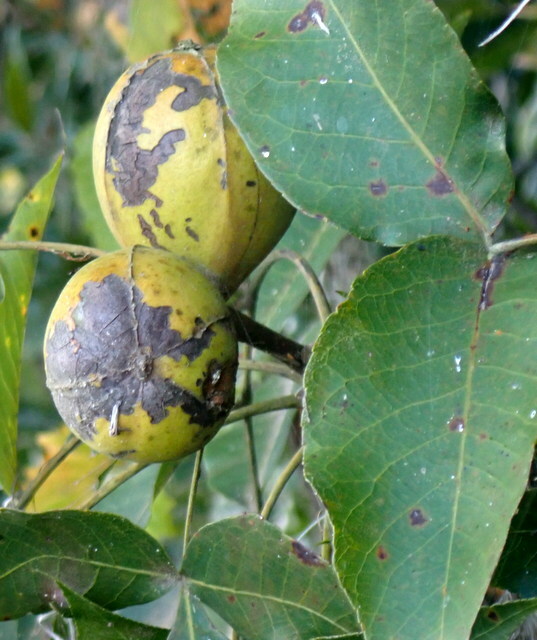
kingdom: Plantae
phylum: Tracheophyta
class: Magnoliopsida
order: Fagales
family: Juglandaceae
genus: Carya
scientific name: Carya glabra
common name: Pignut hickory
